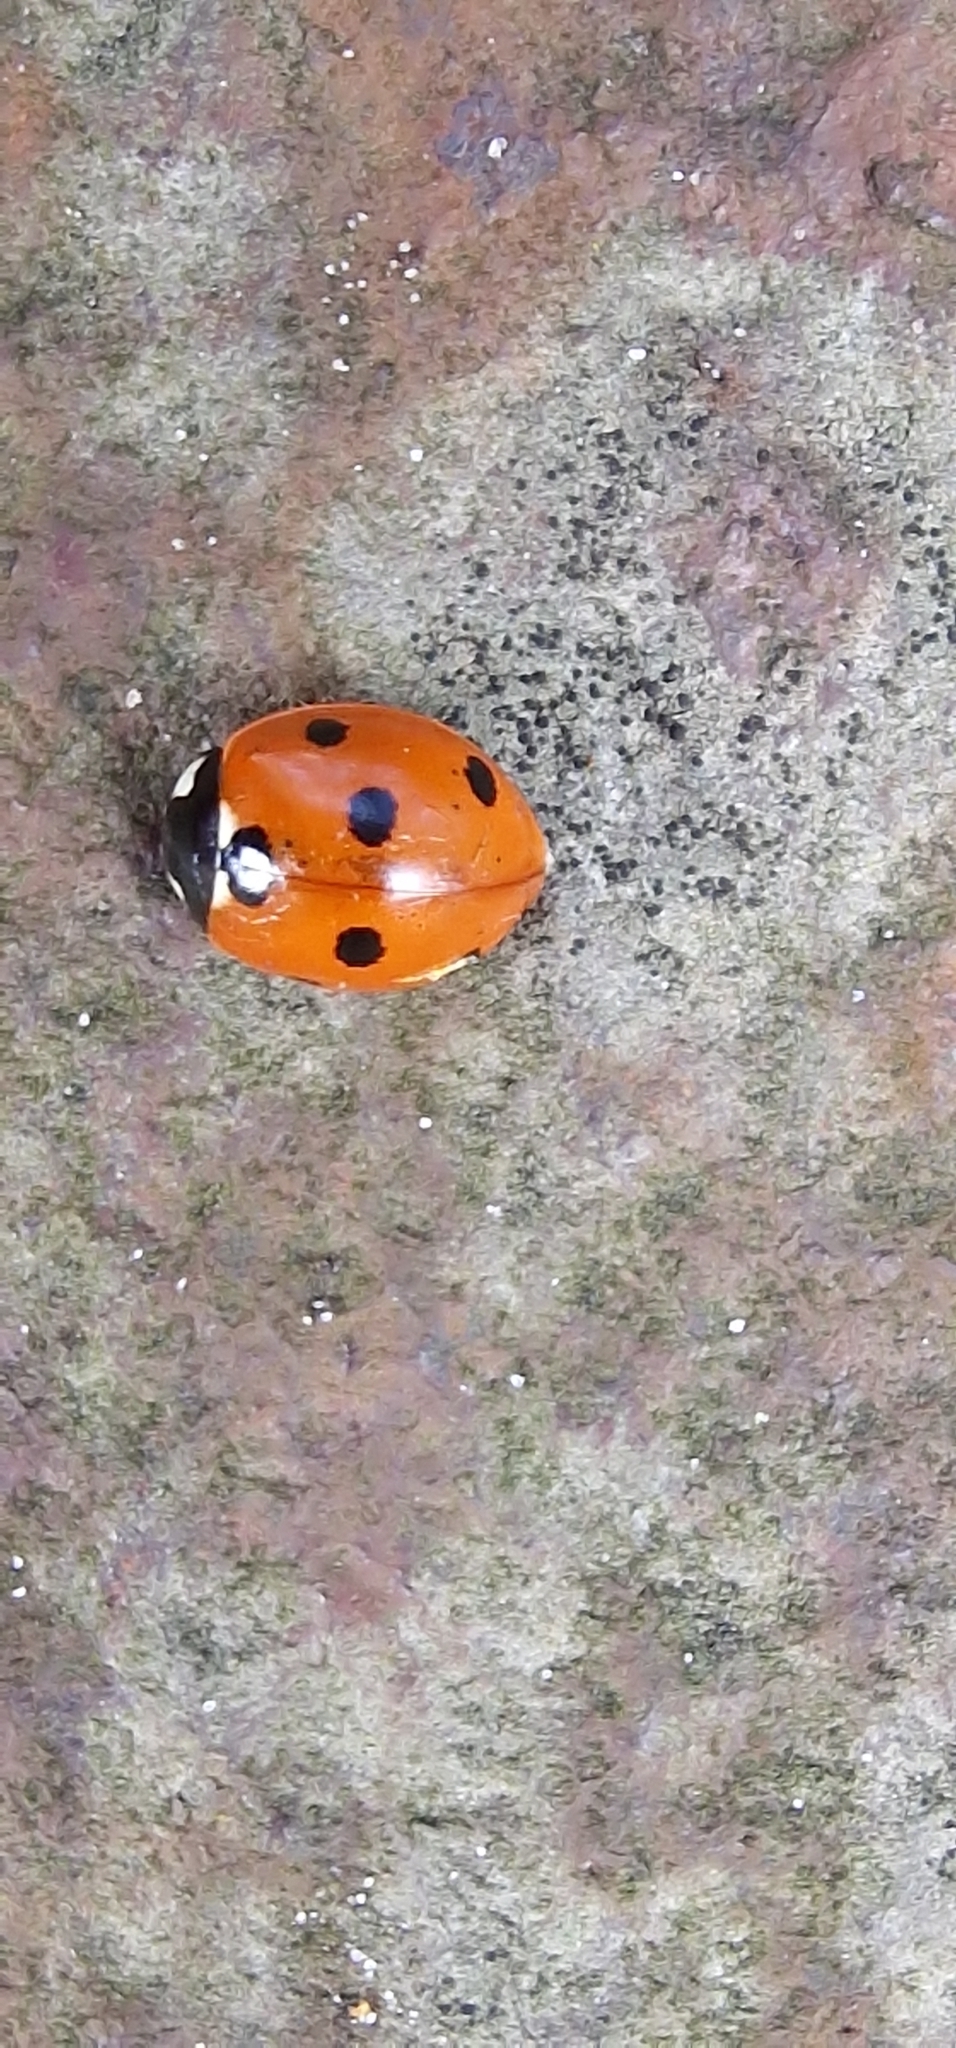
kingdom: Animalia
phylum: Arthropoda
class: Insecta
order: Coleoptera
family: Coccinellidae
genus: Coccinella
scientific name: Coccinella septempunctata
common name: Sevenspotted lady beetle
